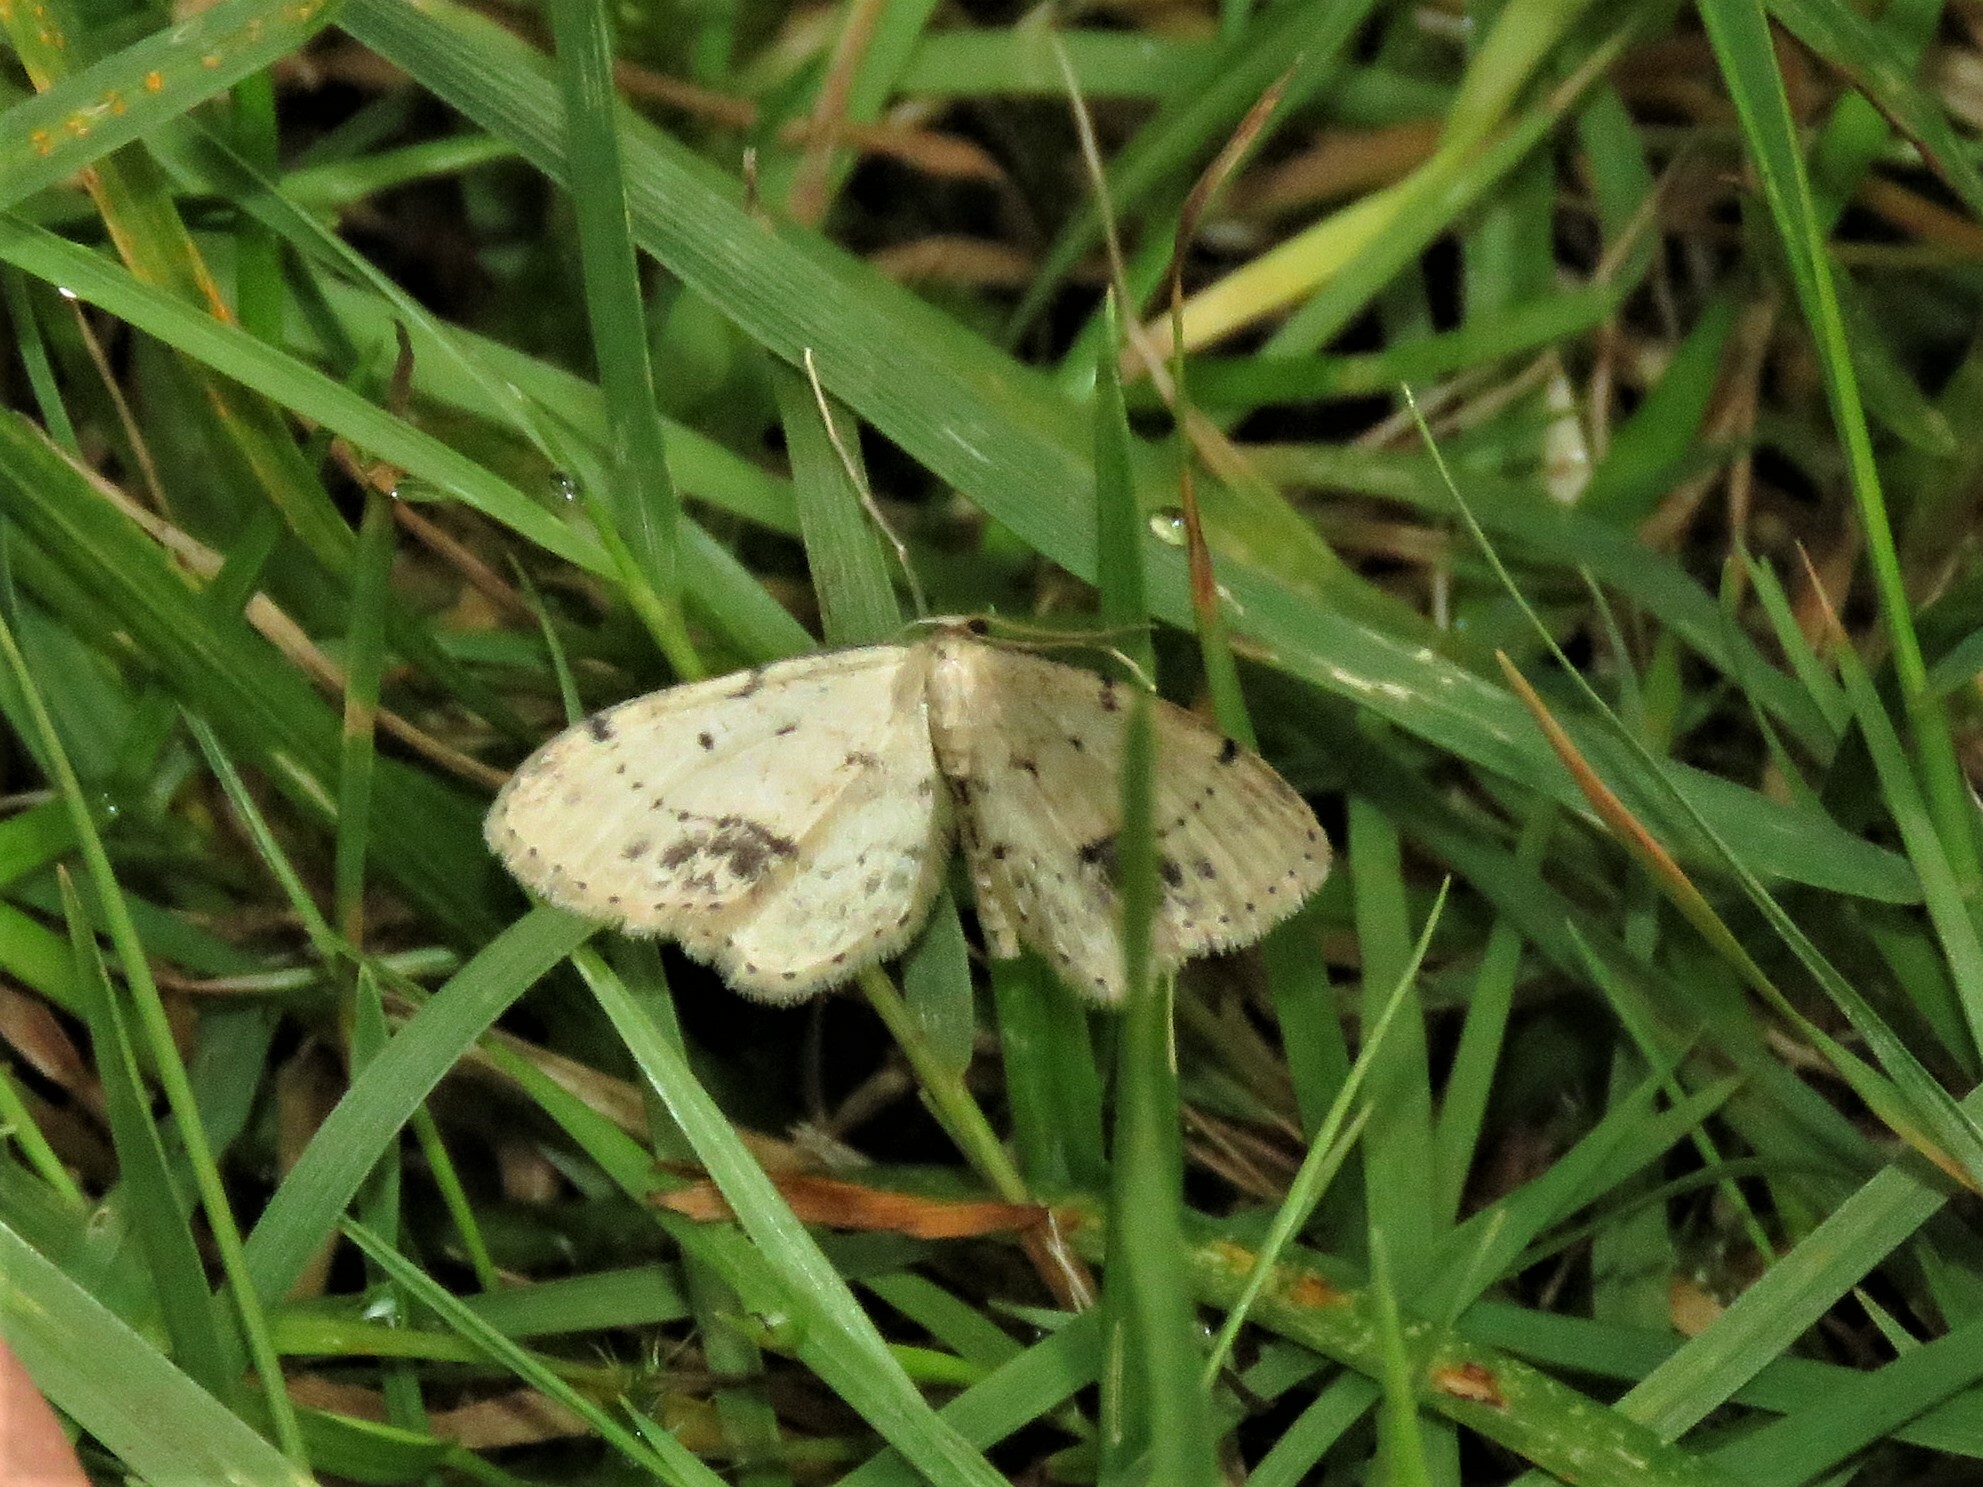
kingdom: Animalia
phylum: Arthropoda
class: Insecta
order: Lepidoptera
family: Geometridae
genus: Idaea
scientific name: Idaea dimidiata
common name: Single-dotted wave
